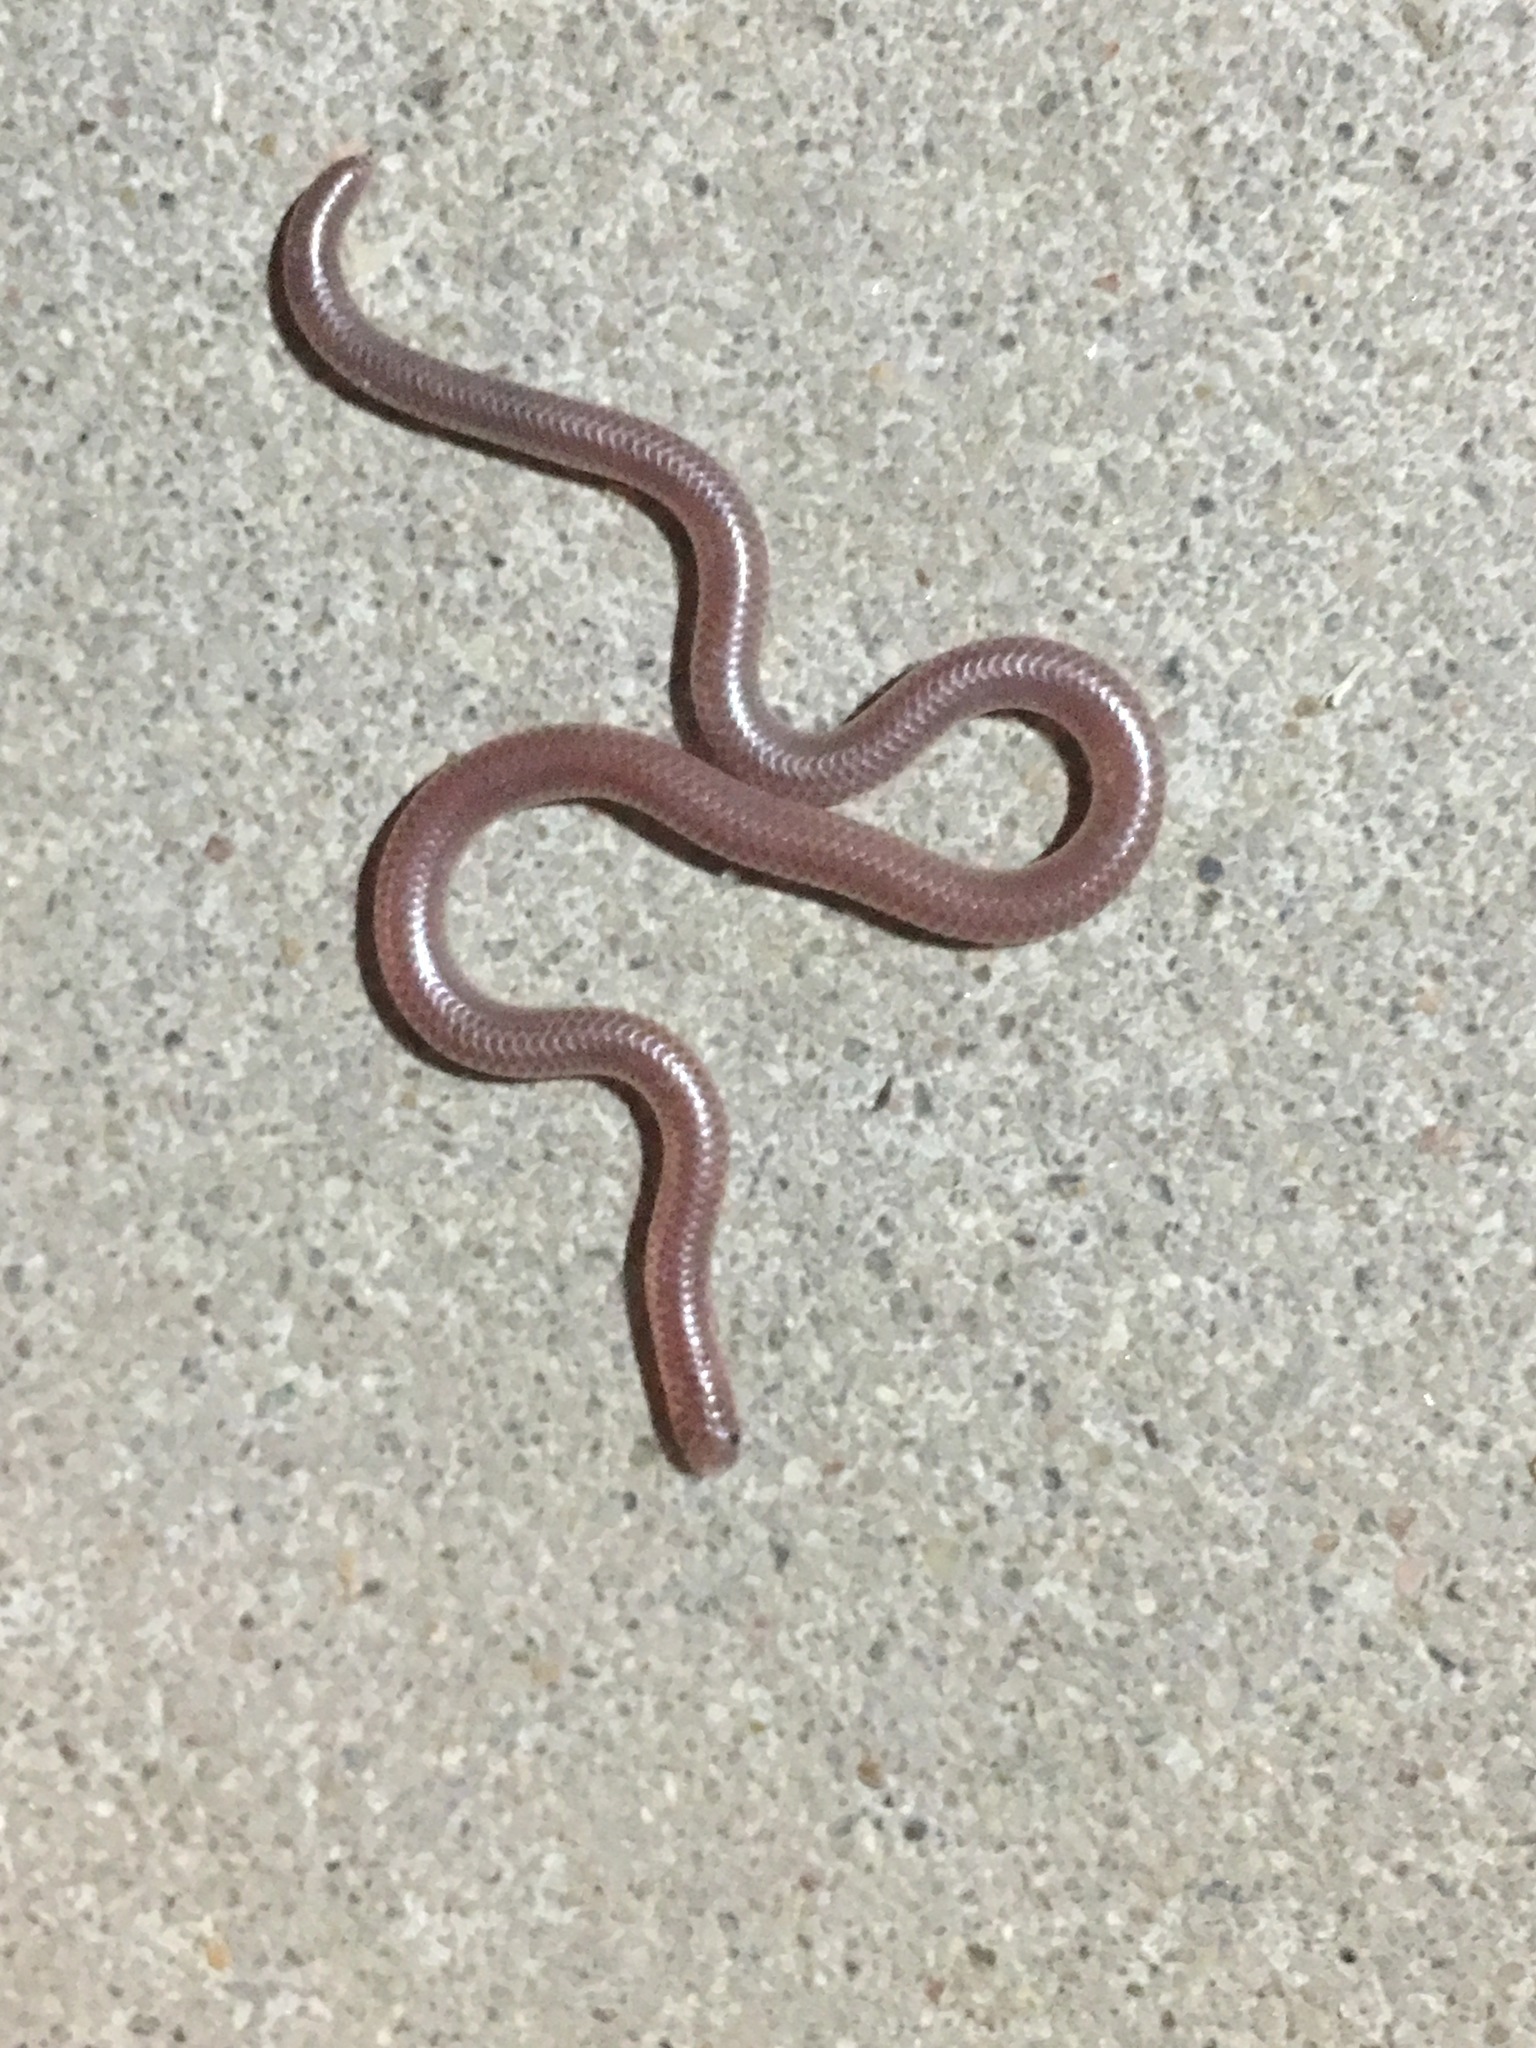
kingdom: Animalia
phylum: Chordata
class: Squamata
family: Leptotyphlopidae
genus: Rena
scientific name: Rena
